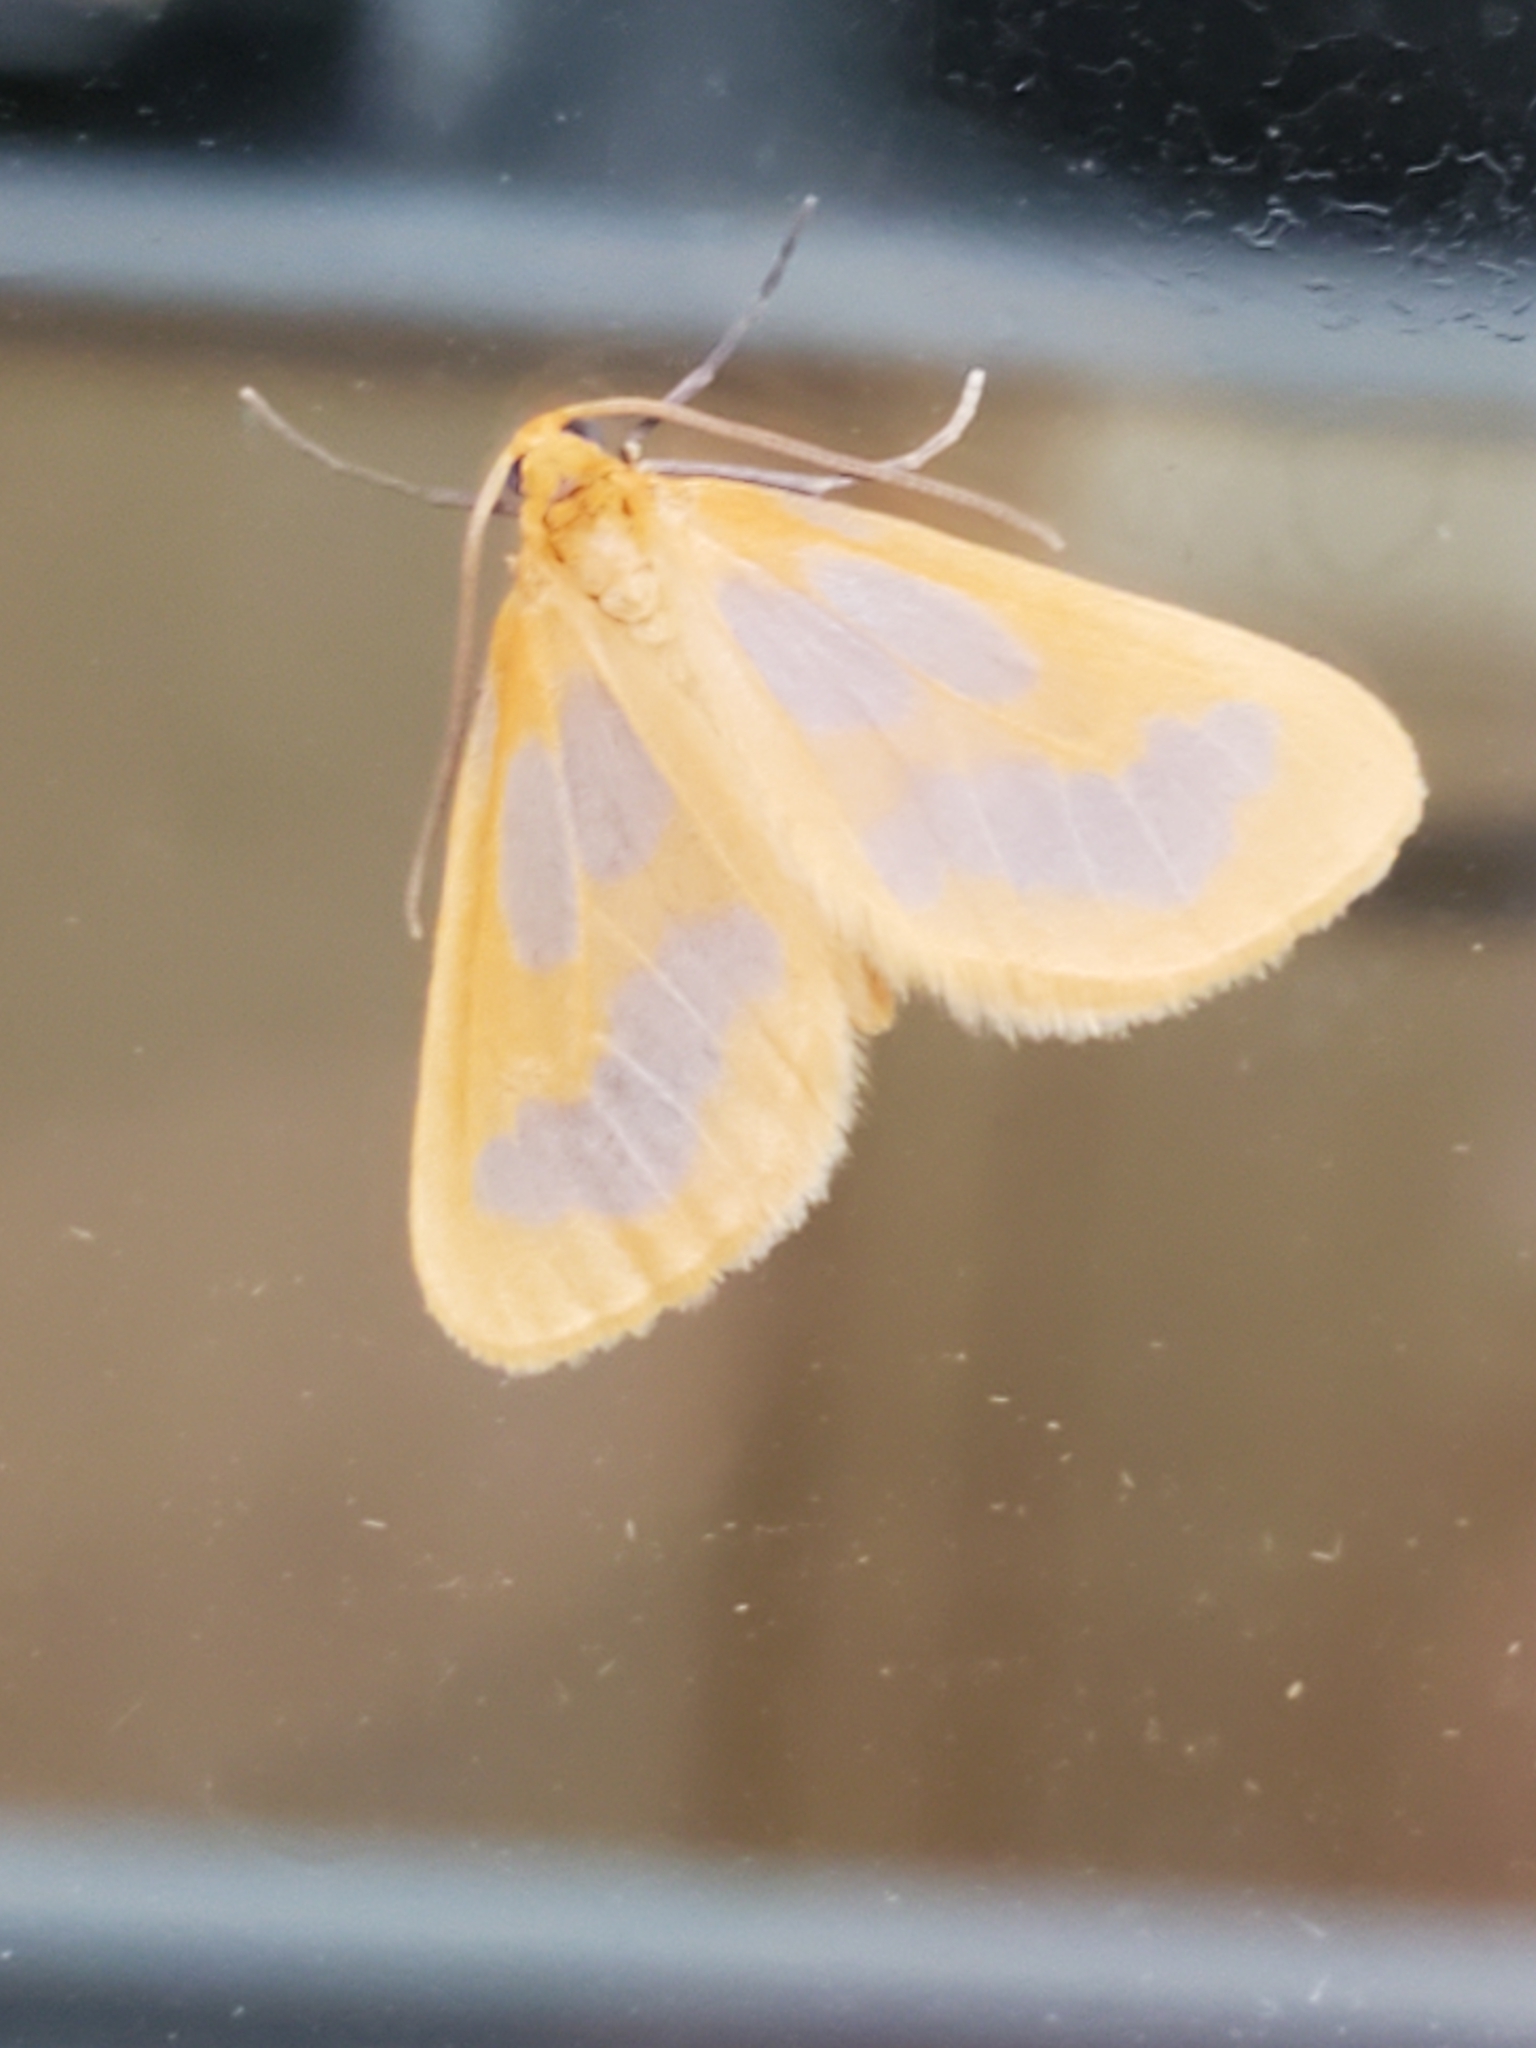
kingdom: Animalia
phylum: Arthropoda
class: Insecta
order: Lepidoptera
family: Geometridae
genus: Eubaphe
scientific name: Eubaphe helveta
